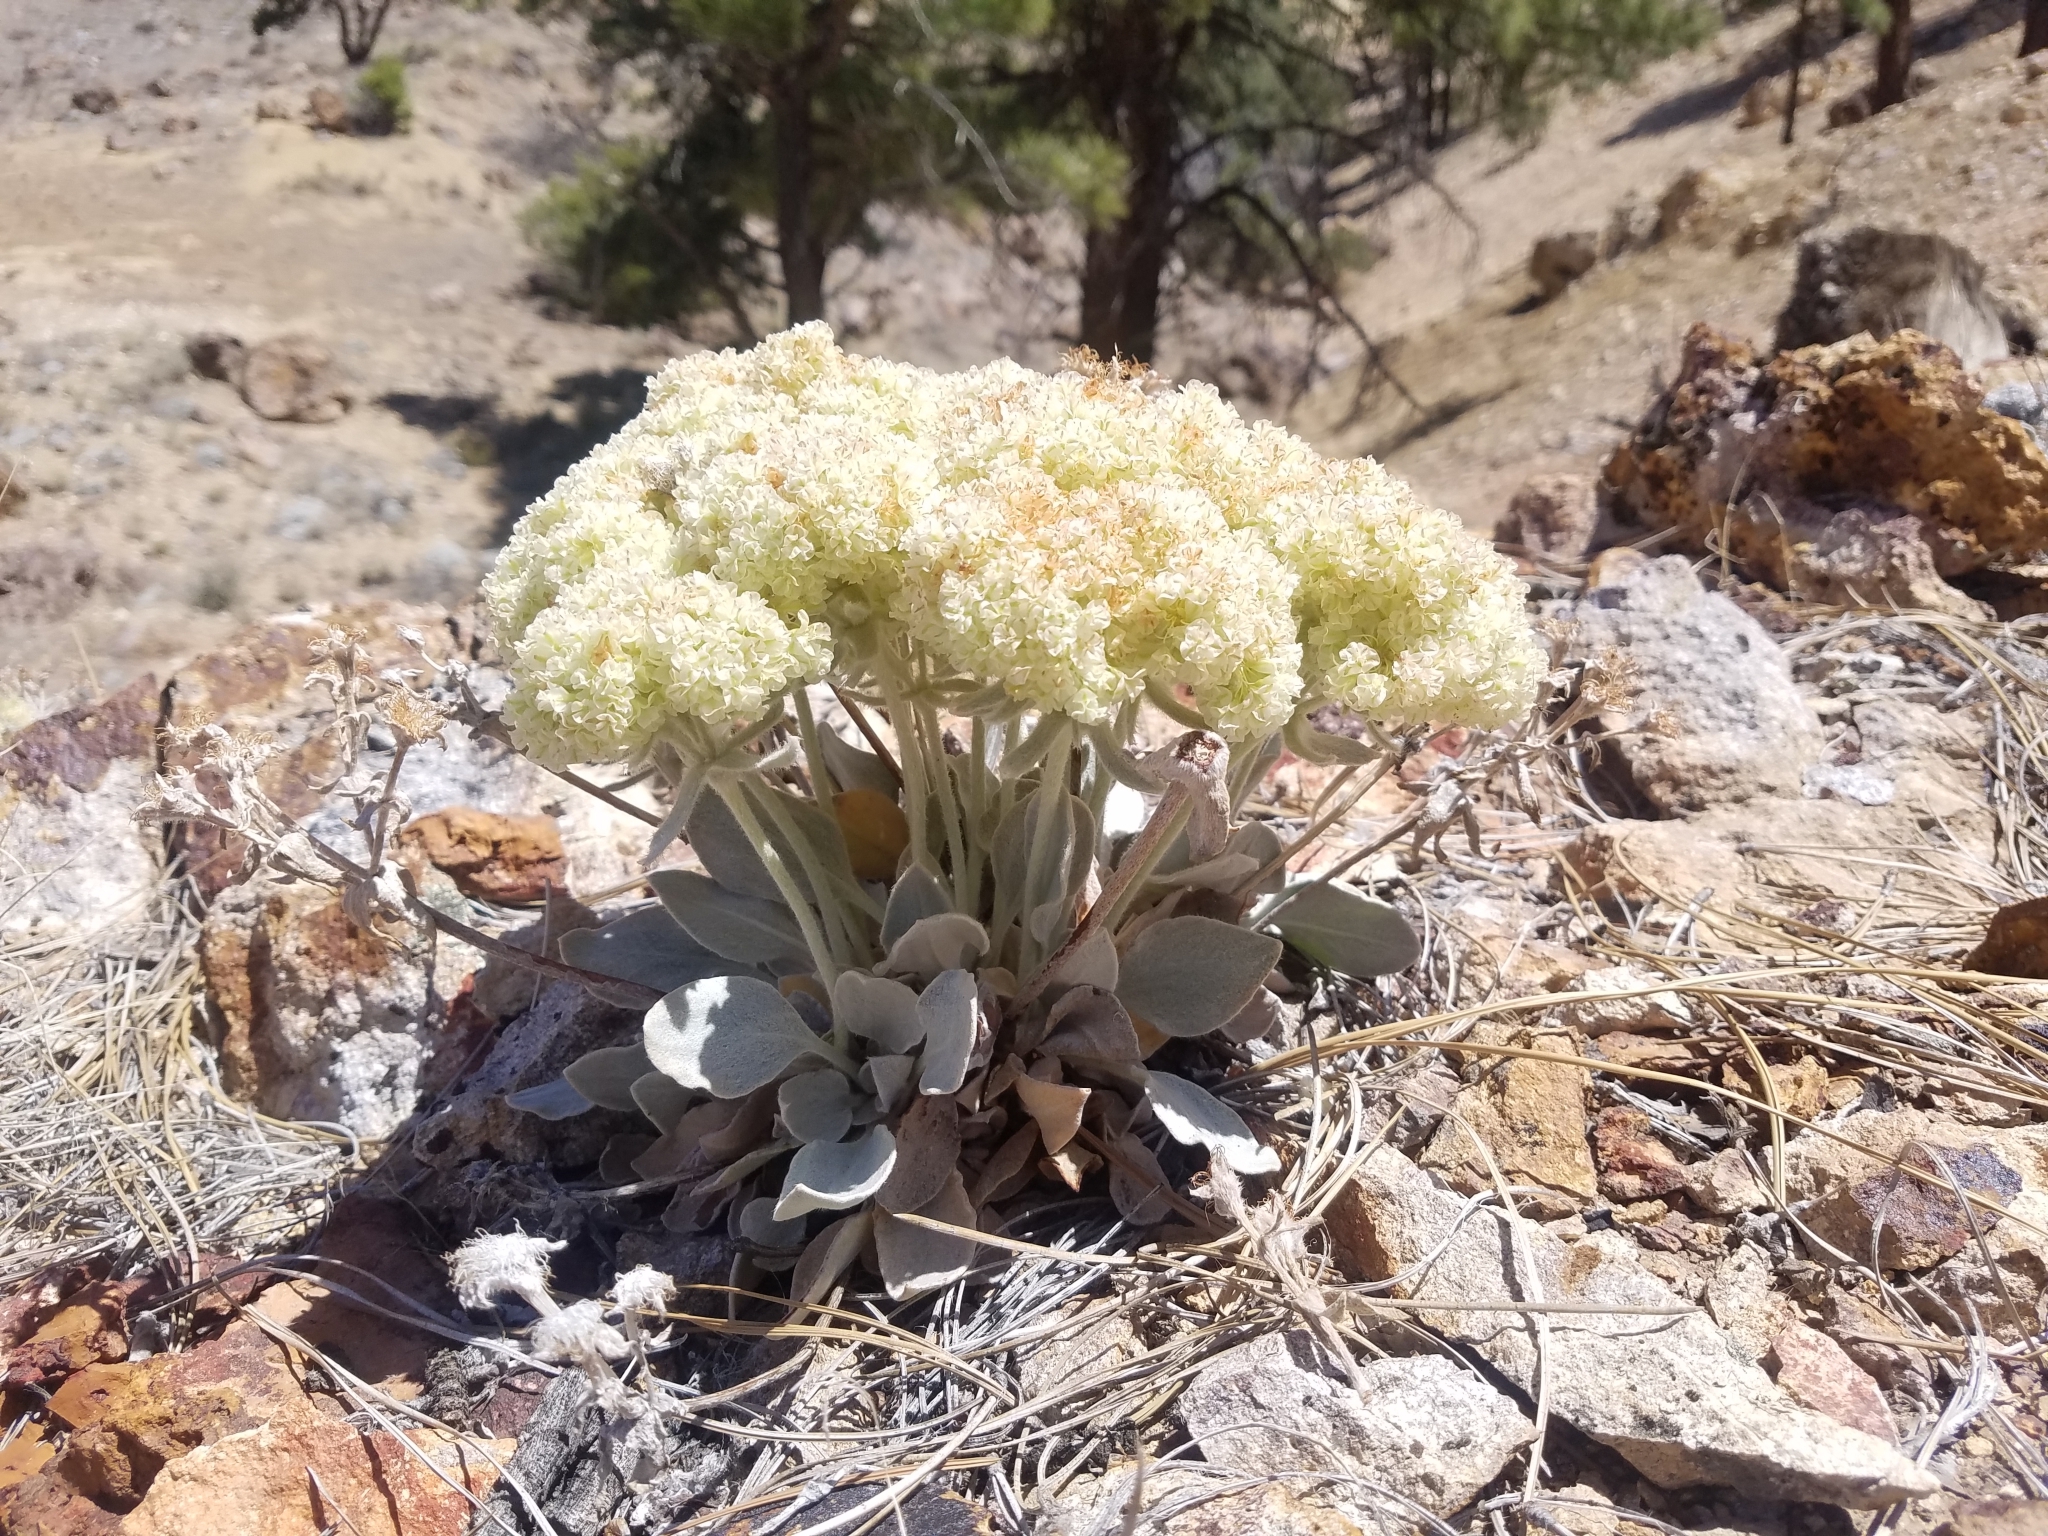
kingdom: Plantae
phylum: Tracheophyta
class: Magnoliopsida
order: Caryophyllales
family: Polygonaceae
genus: Eriogonum
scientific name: Eriogonum robustum
